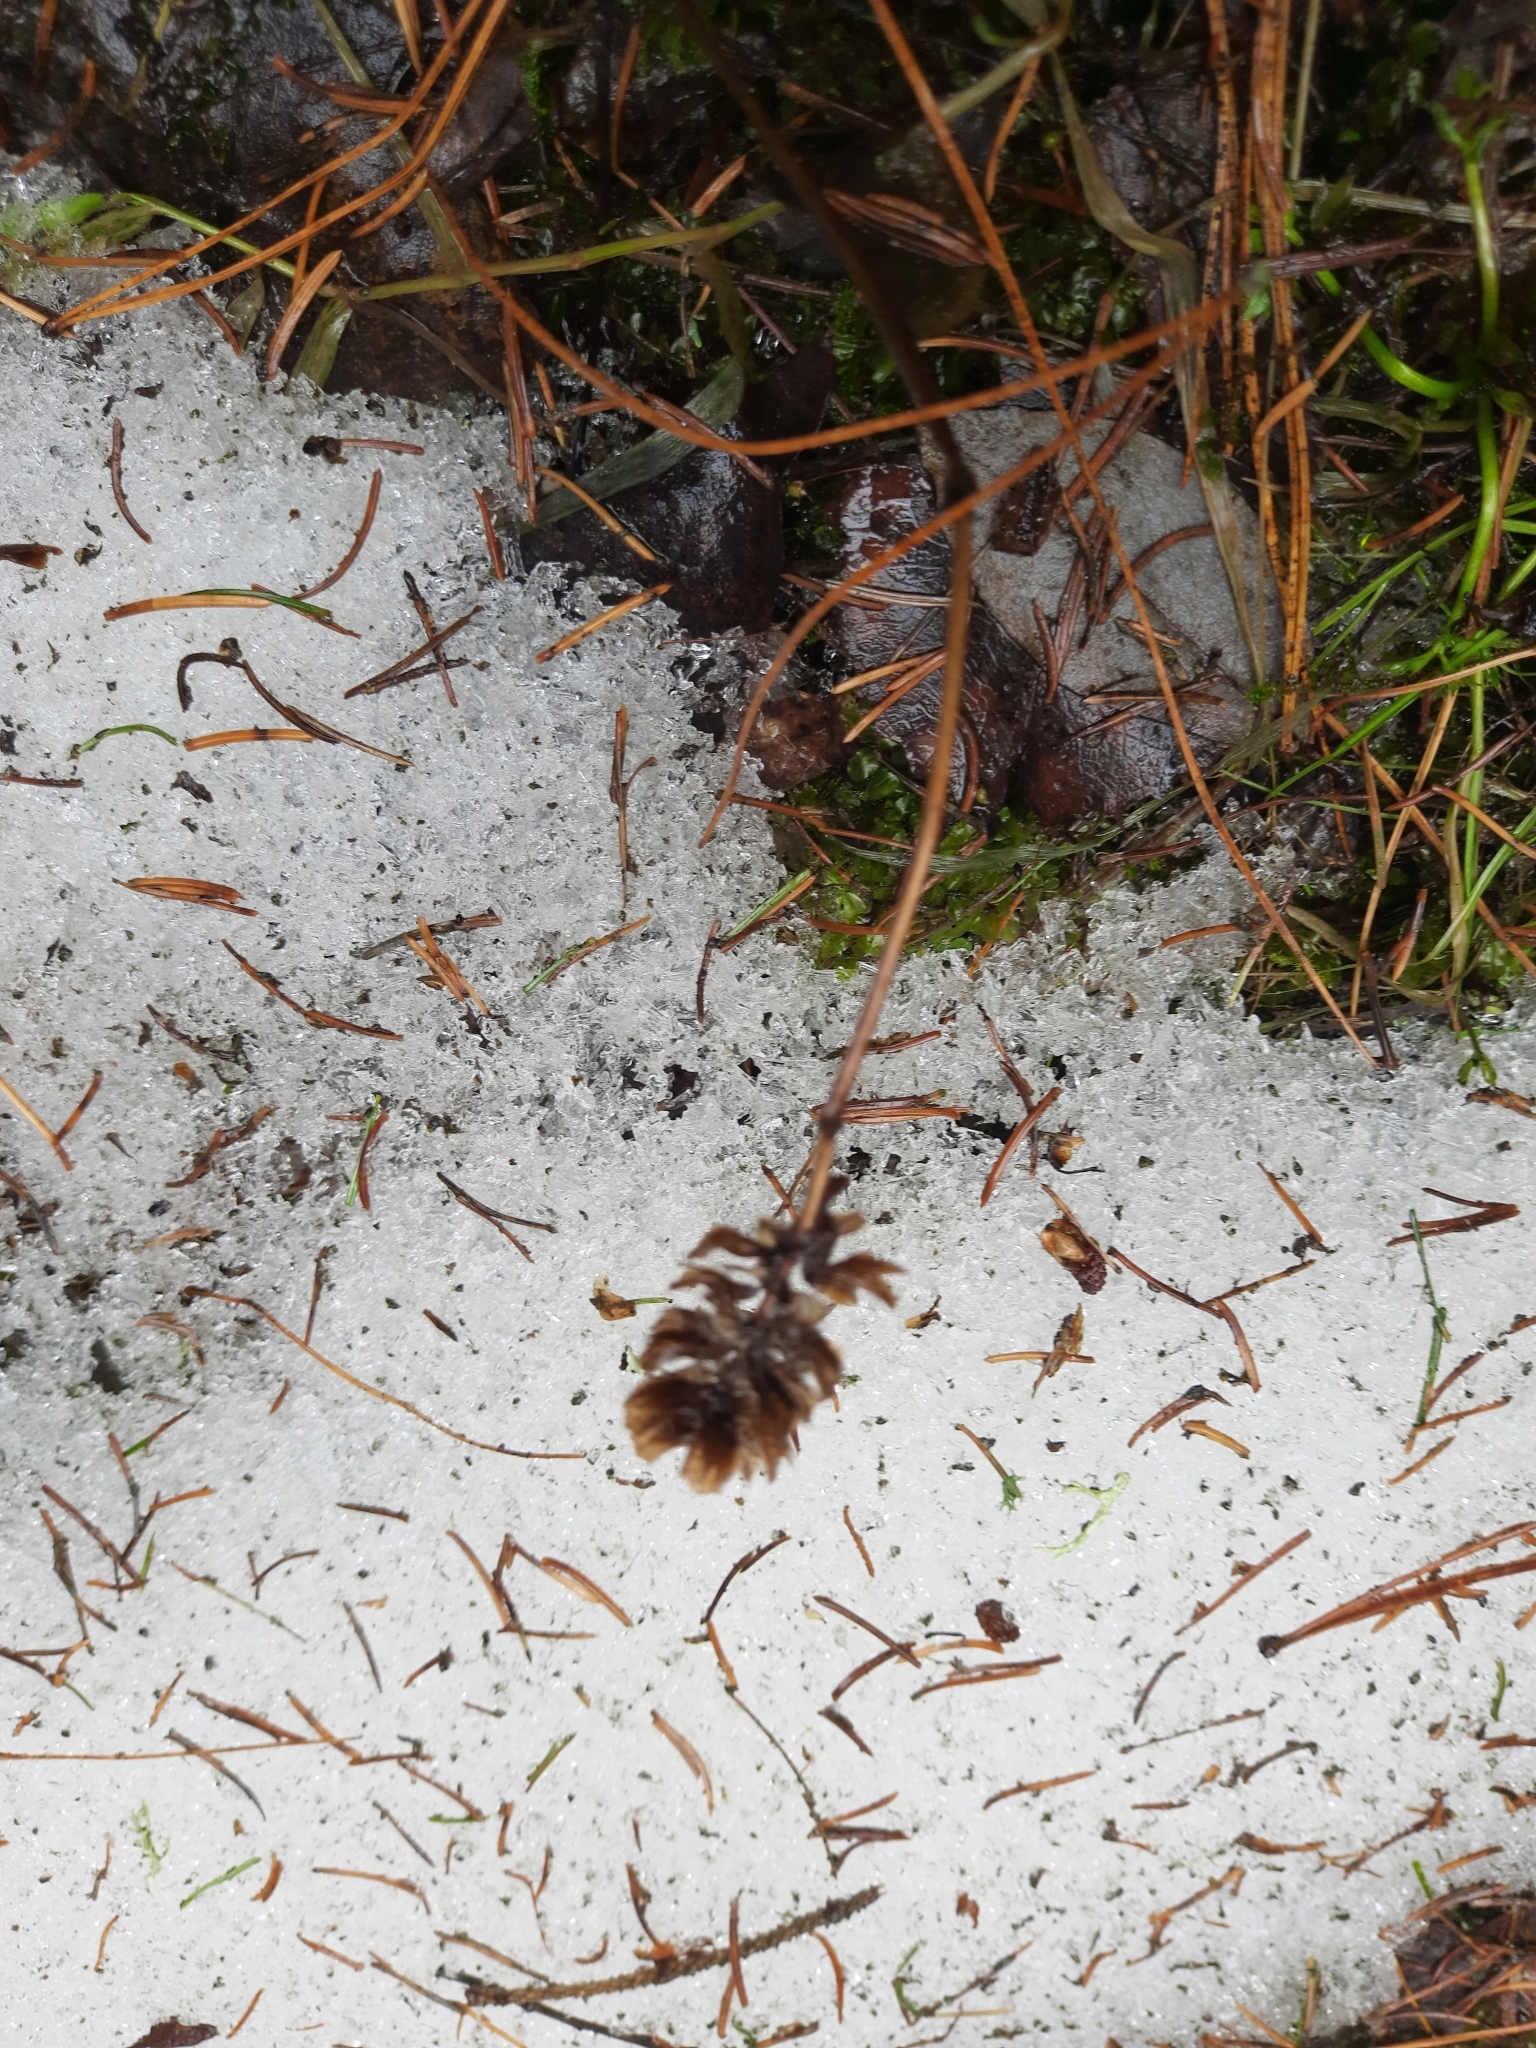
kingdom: Plantae
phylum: Tracheophyta
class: Magnoliopsida
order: Lamiales
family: Lamiaceae
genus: Prunella
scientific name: Prunella vulgaris
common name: Heal-all
